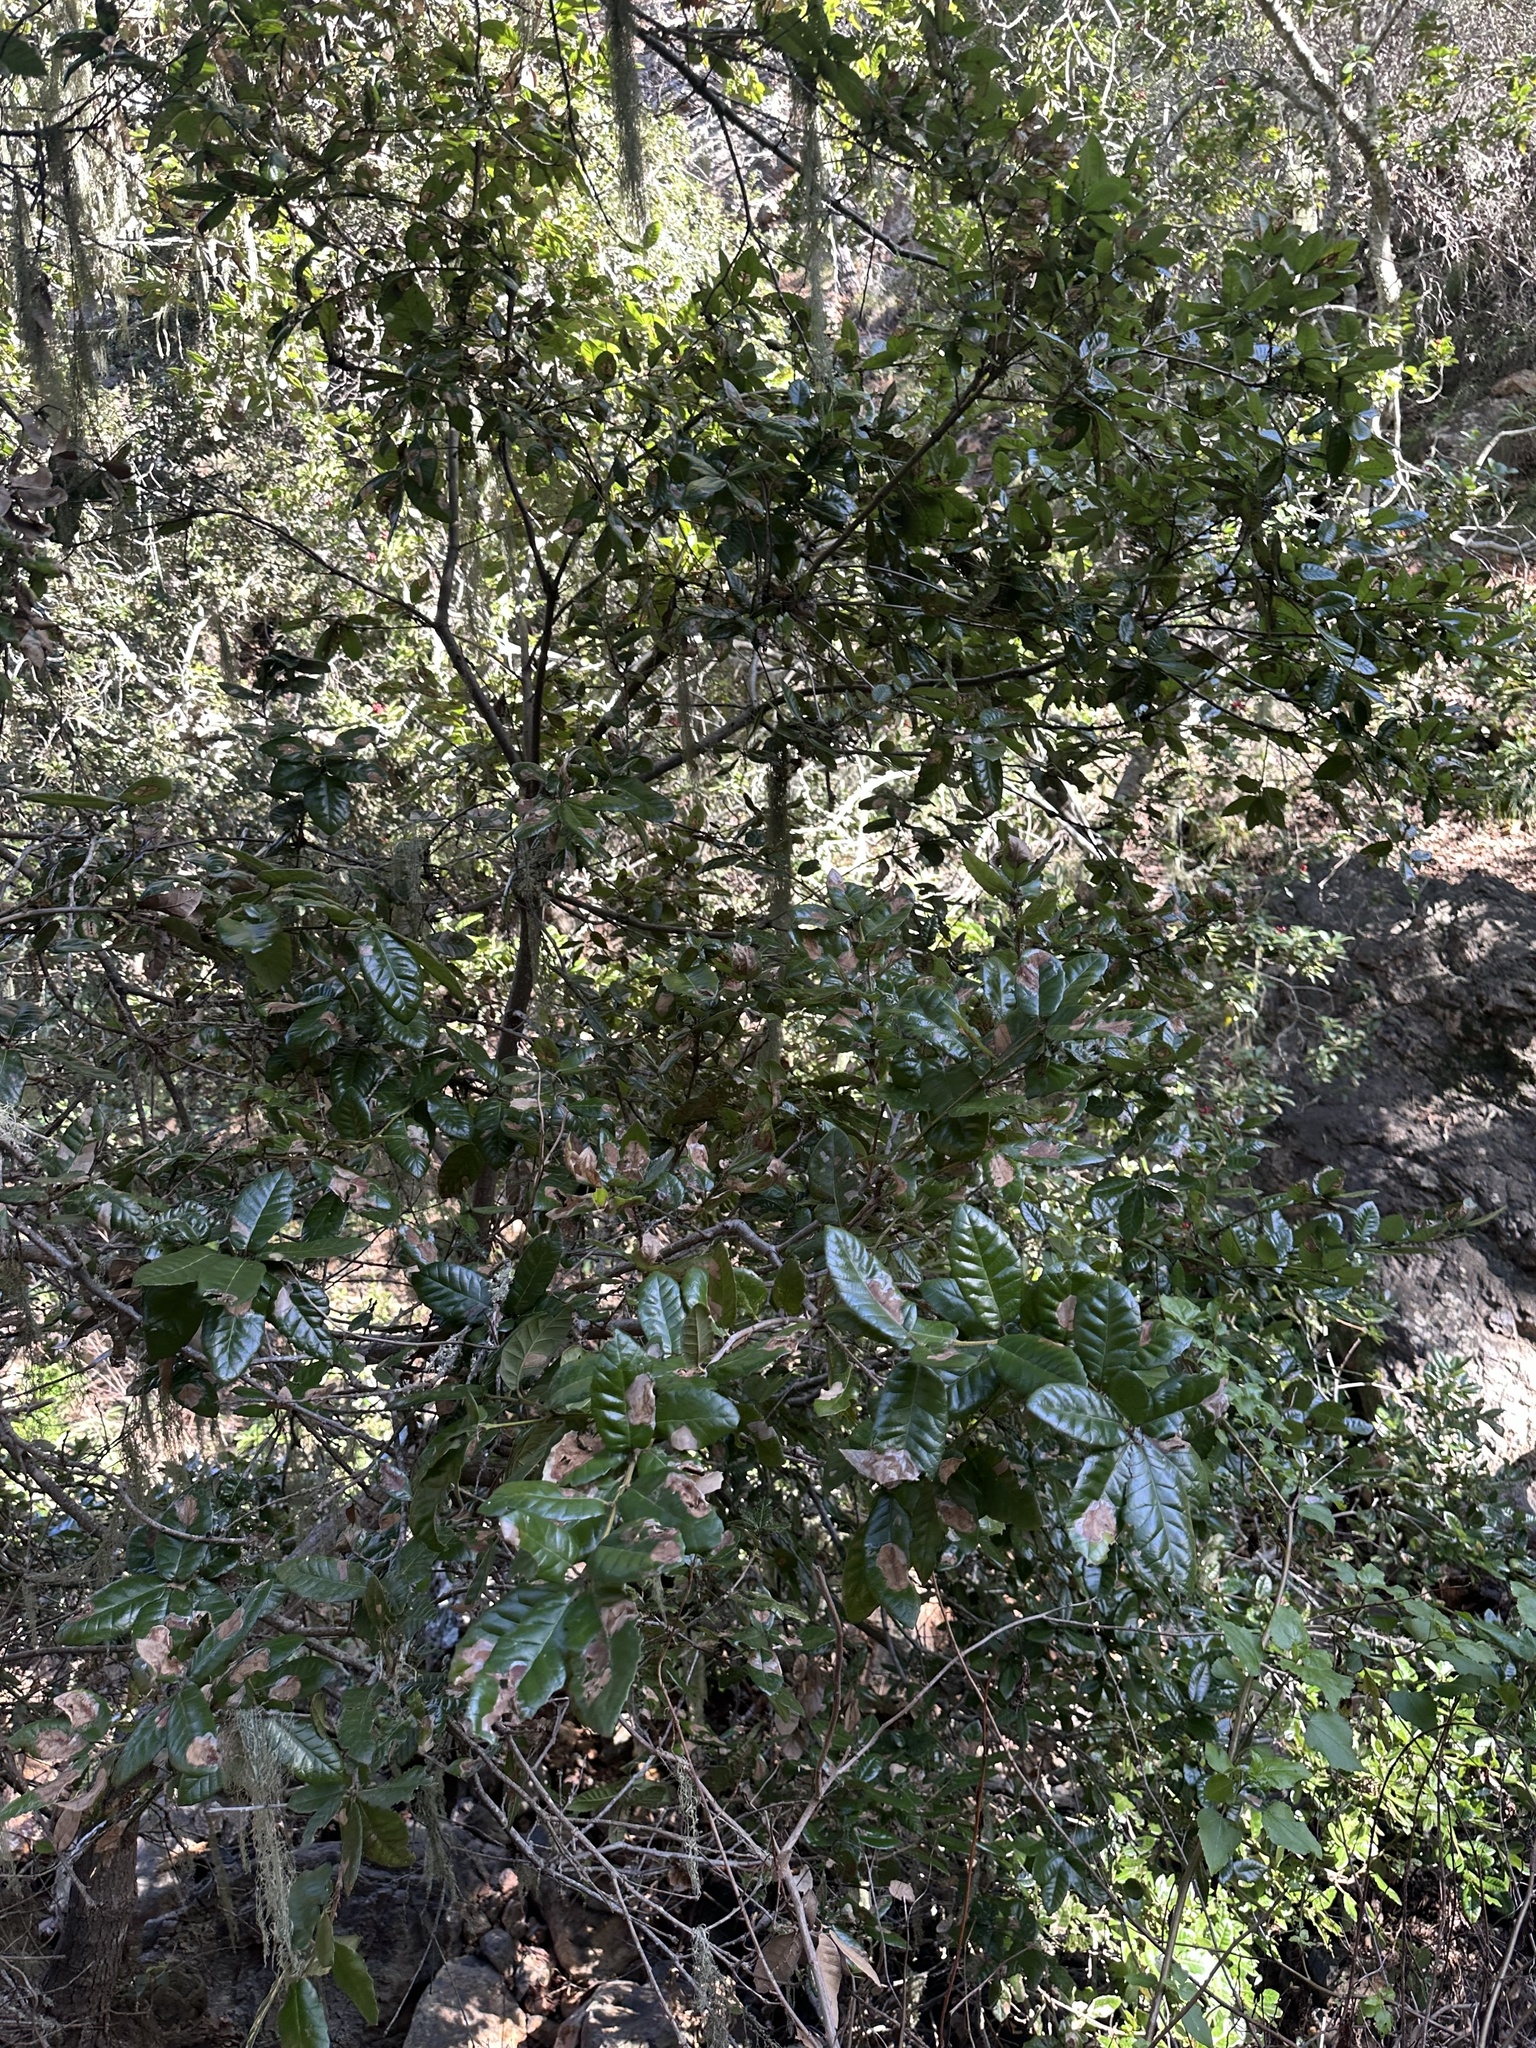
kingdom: Plantae
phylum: Tracheophyta
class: Magnoliopsida
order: Fagales
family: Fagaceae
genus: Quercus
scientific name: Quercus tomentella
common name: Island oak
